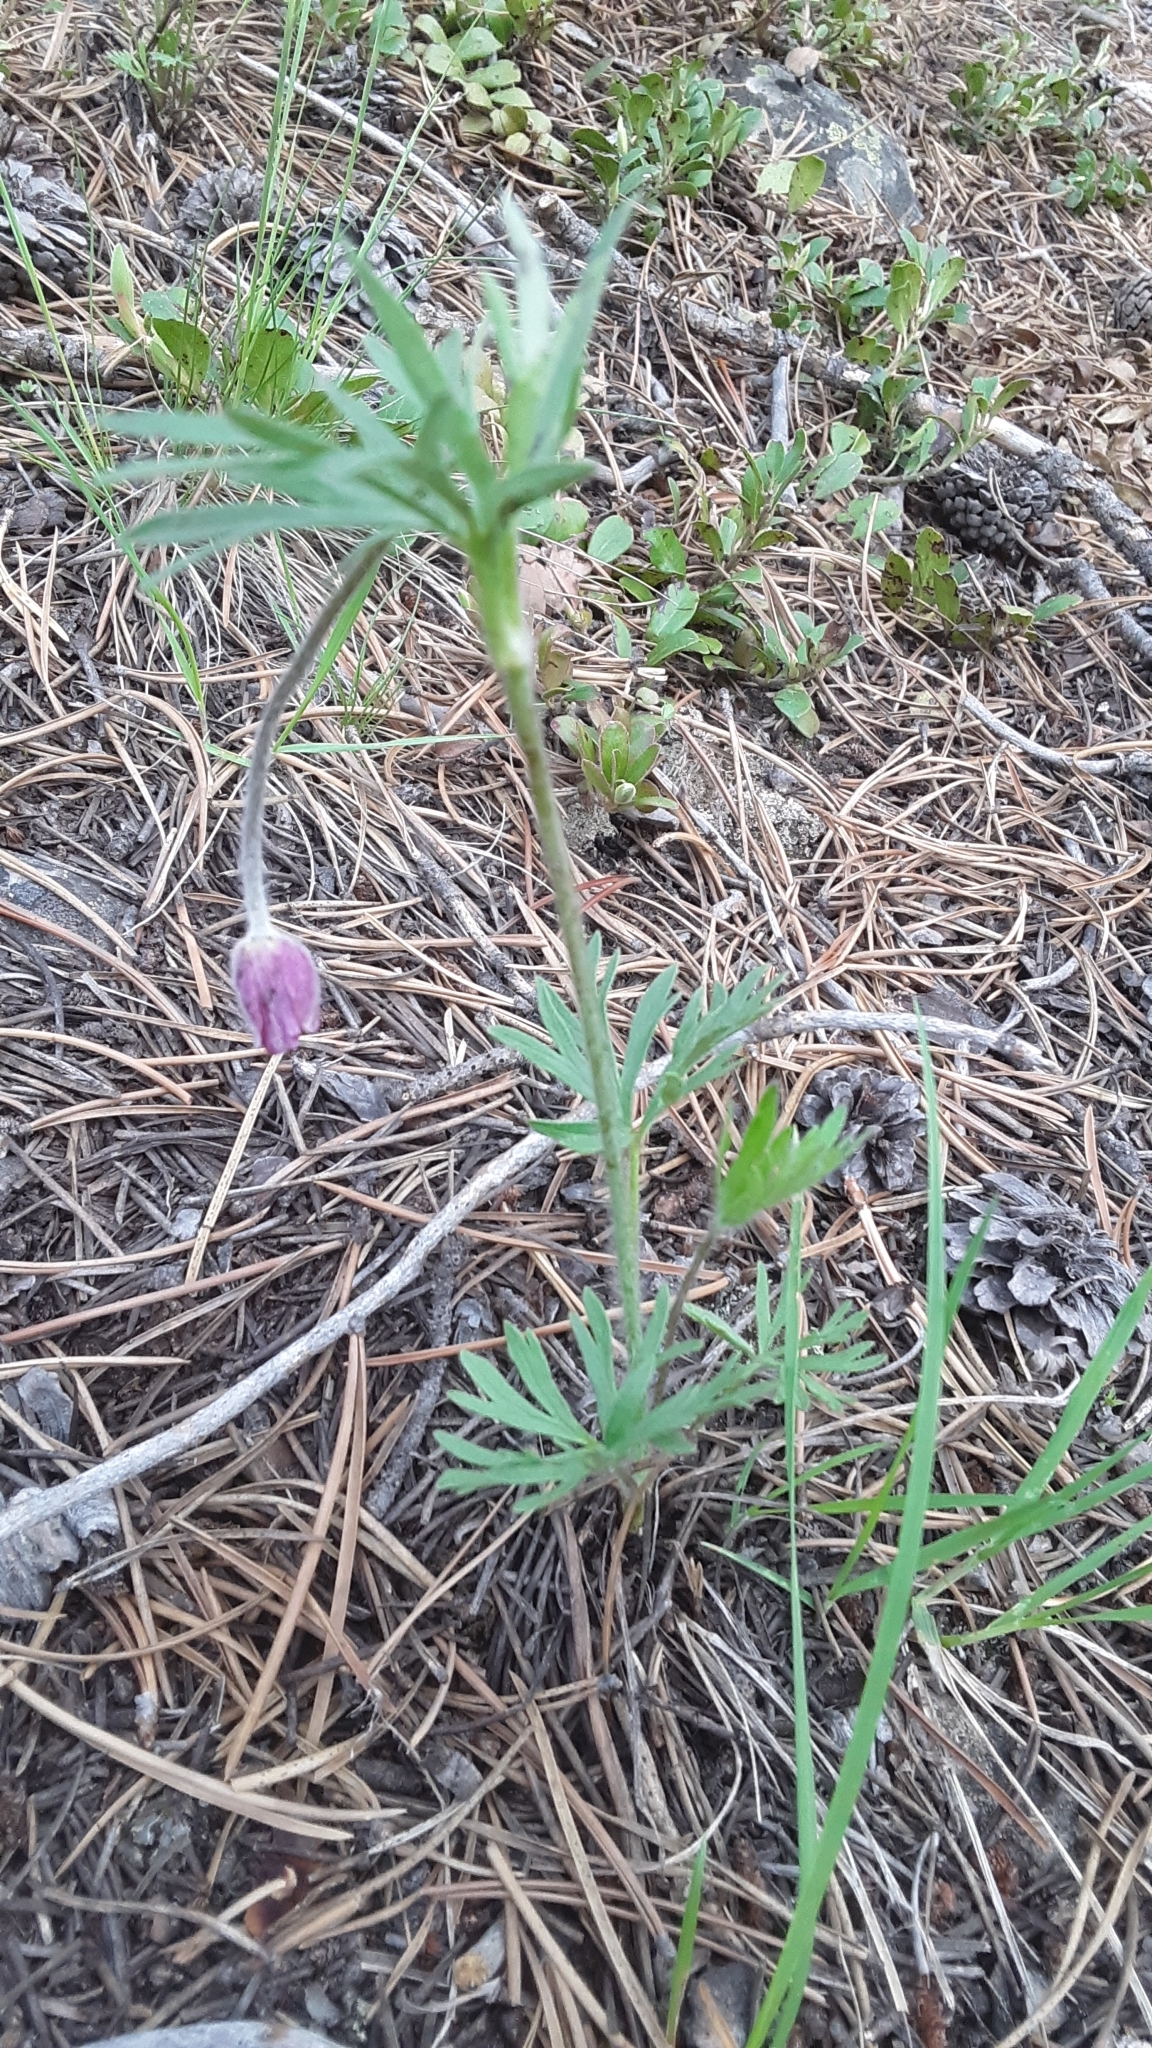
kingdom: Plantae
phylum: Tracheophyta
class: Magnoliopsida
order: Ranunculales
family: Ranunculaceae
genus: Anemone
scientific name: Anemone multifida
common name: Bird's-foot anemone
